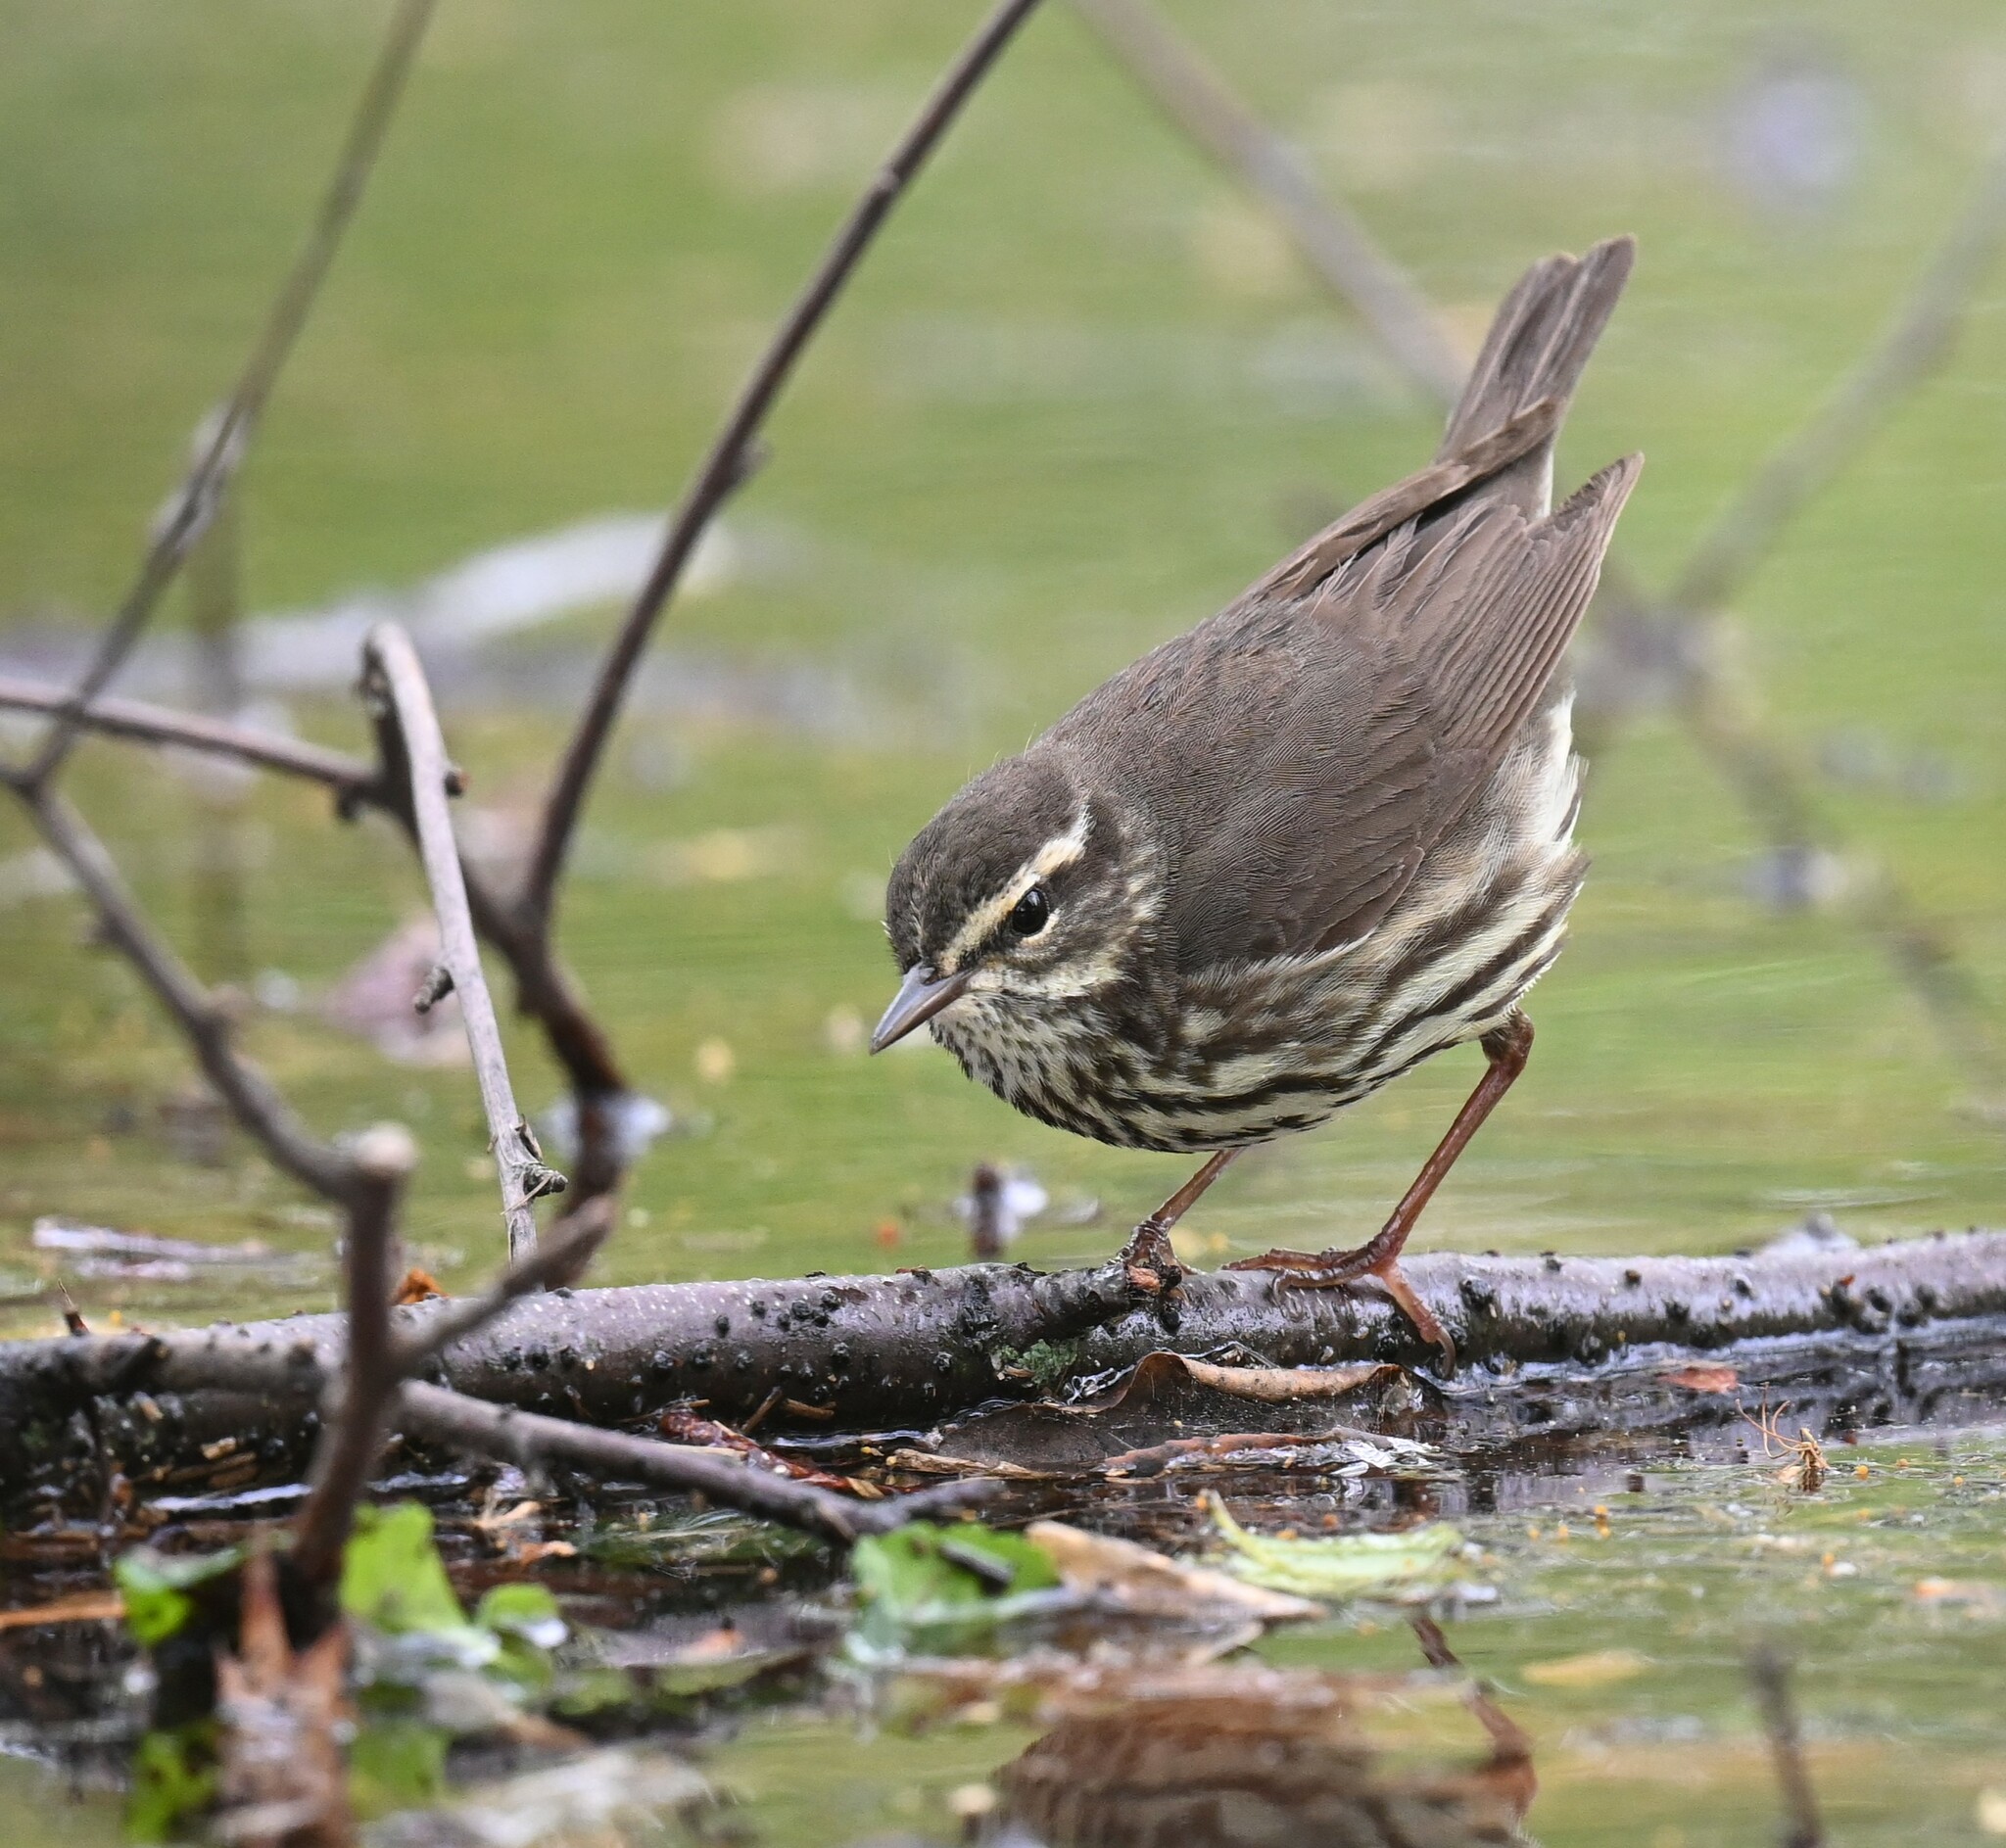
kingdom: Animalia
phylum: Chordata
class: Aves
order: Passeriformes
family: Parulidae
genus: Parkesia
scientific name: Parkesia noveboracensis
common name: Northern waterthrush
